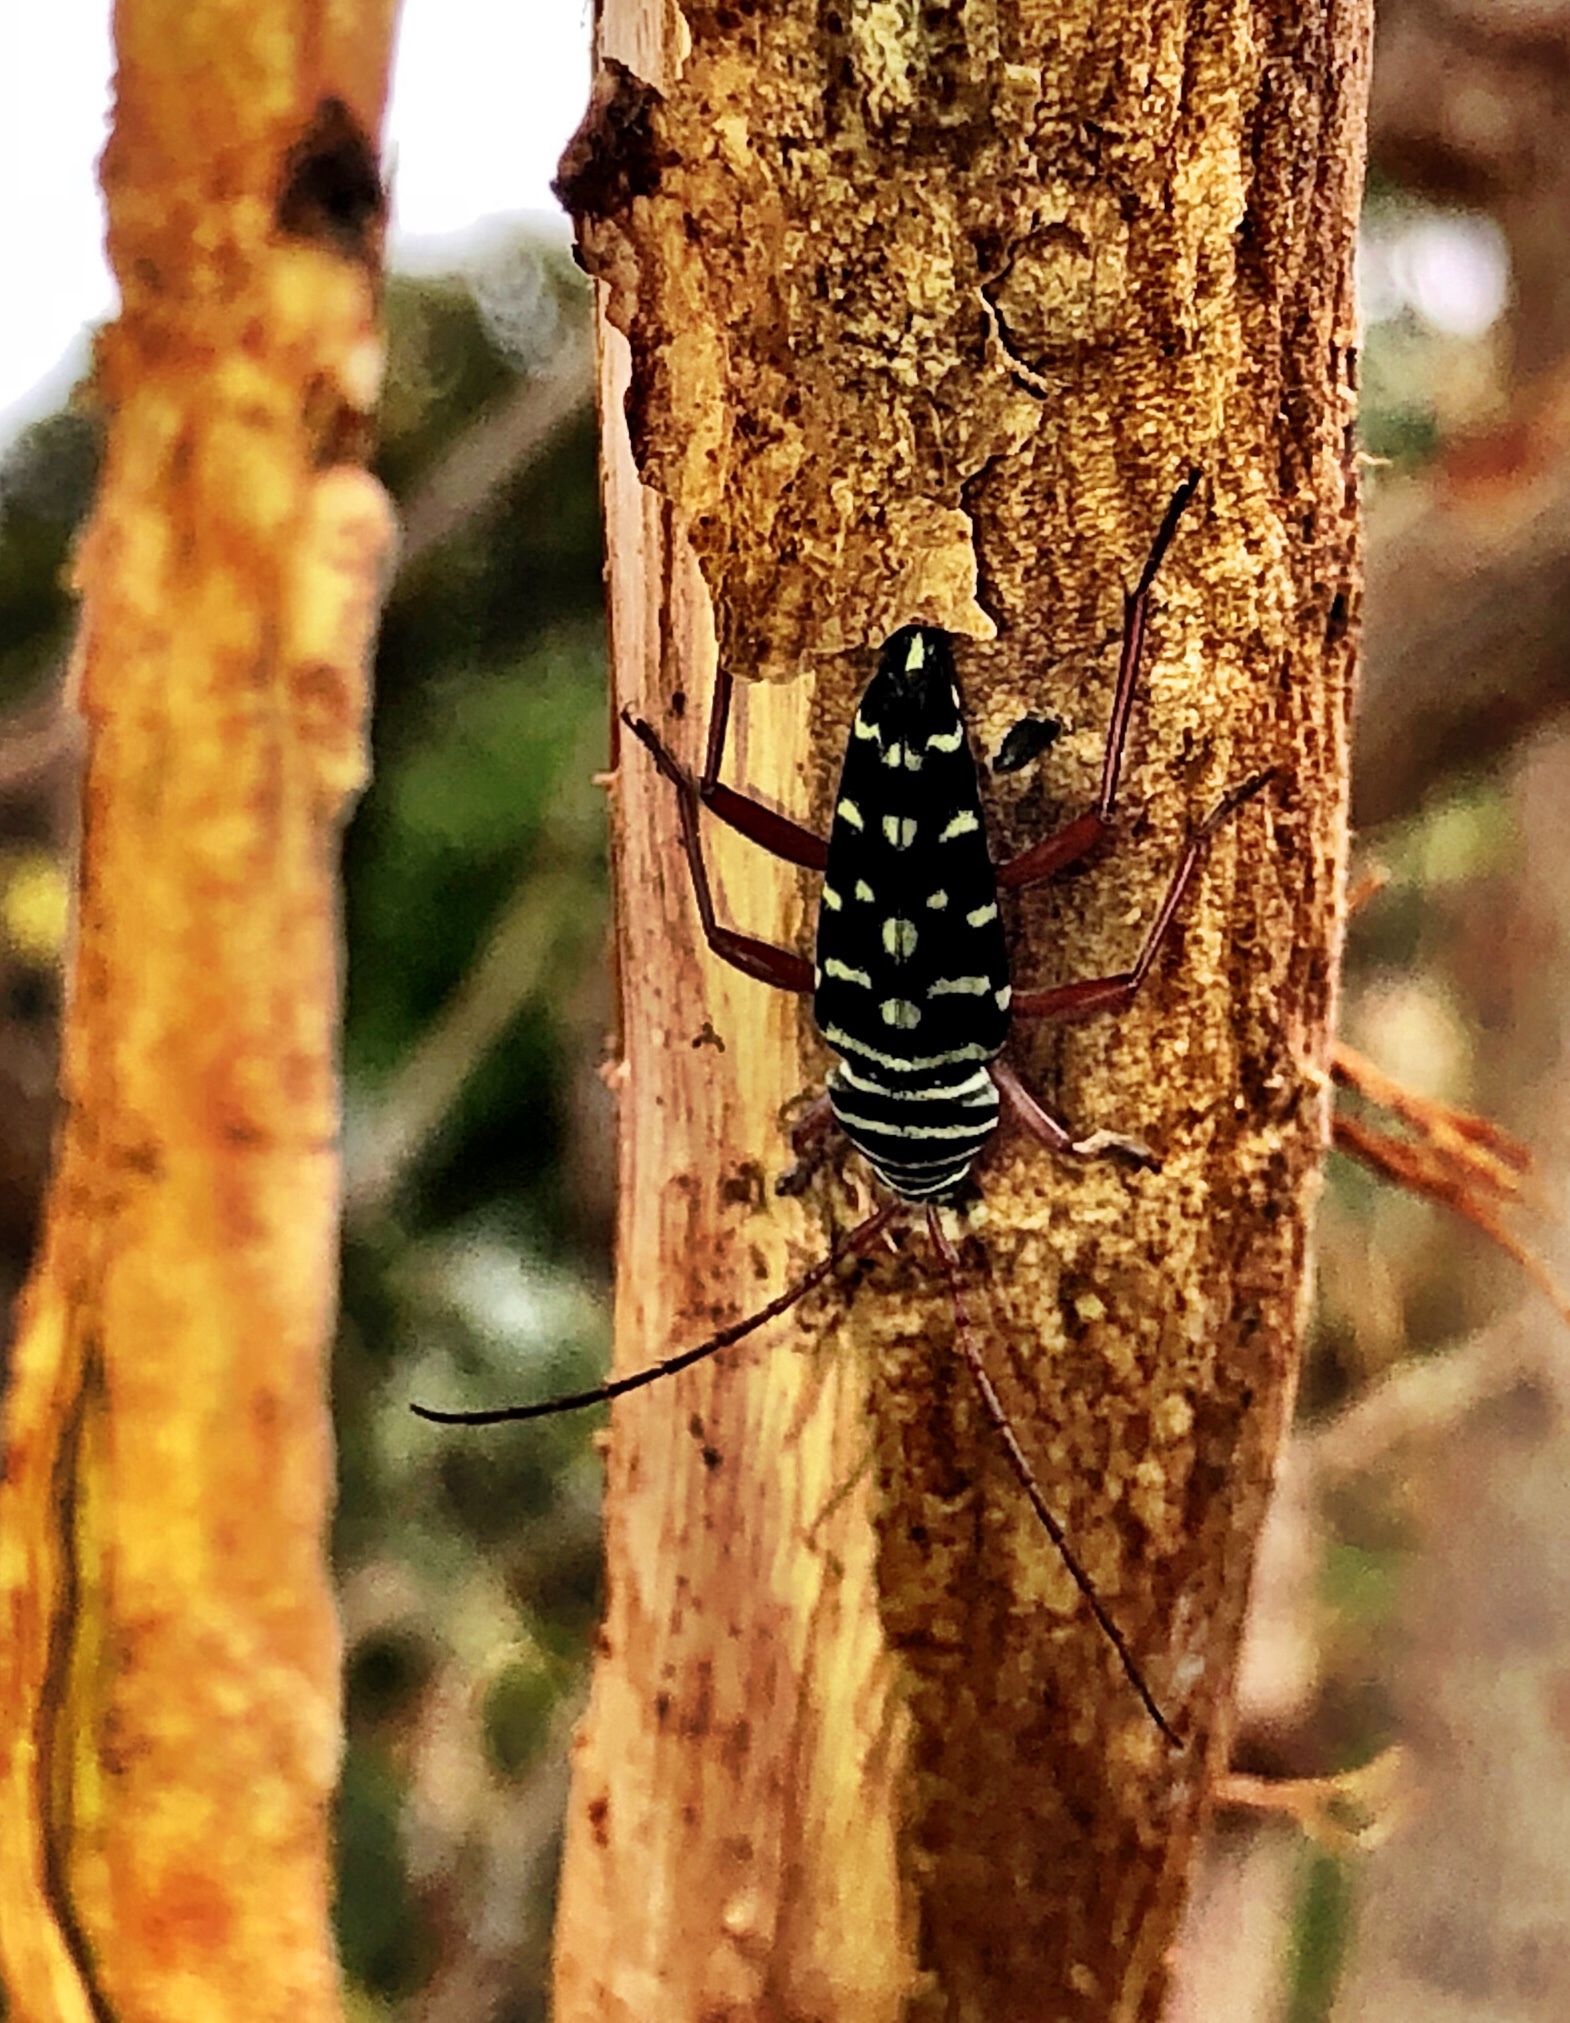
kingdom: Animalia
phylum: Arthropoda
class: Insecta
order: Coleoptera
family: Cerambycidae
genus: Placosternus
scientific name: Placosternus crinicornis
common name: Kiawe round headed borer
